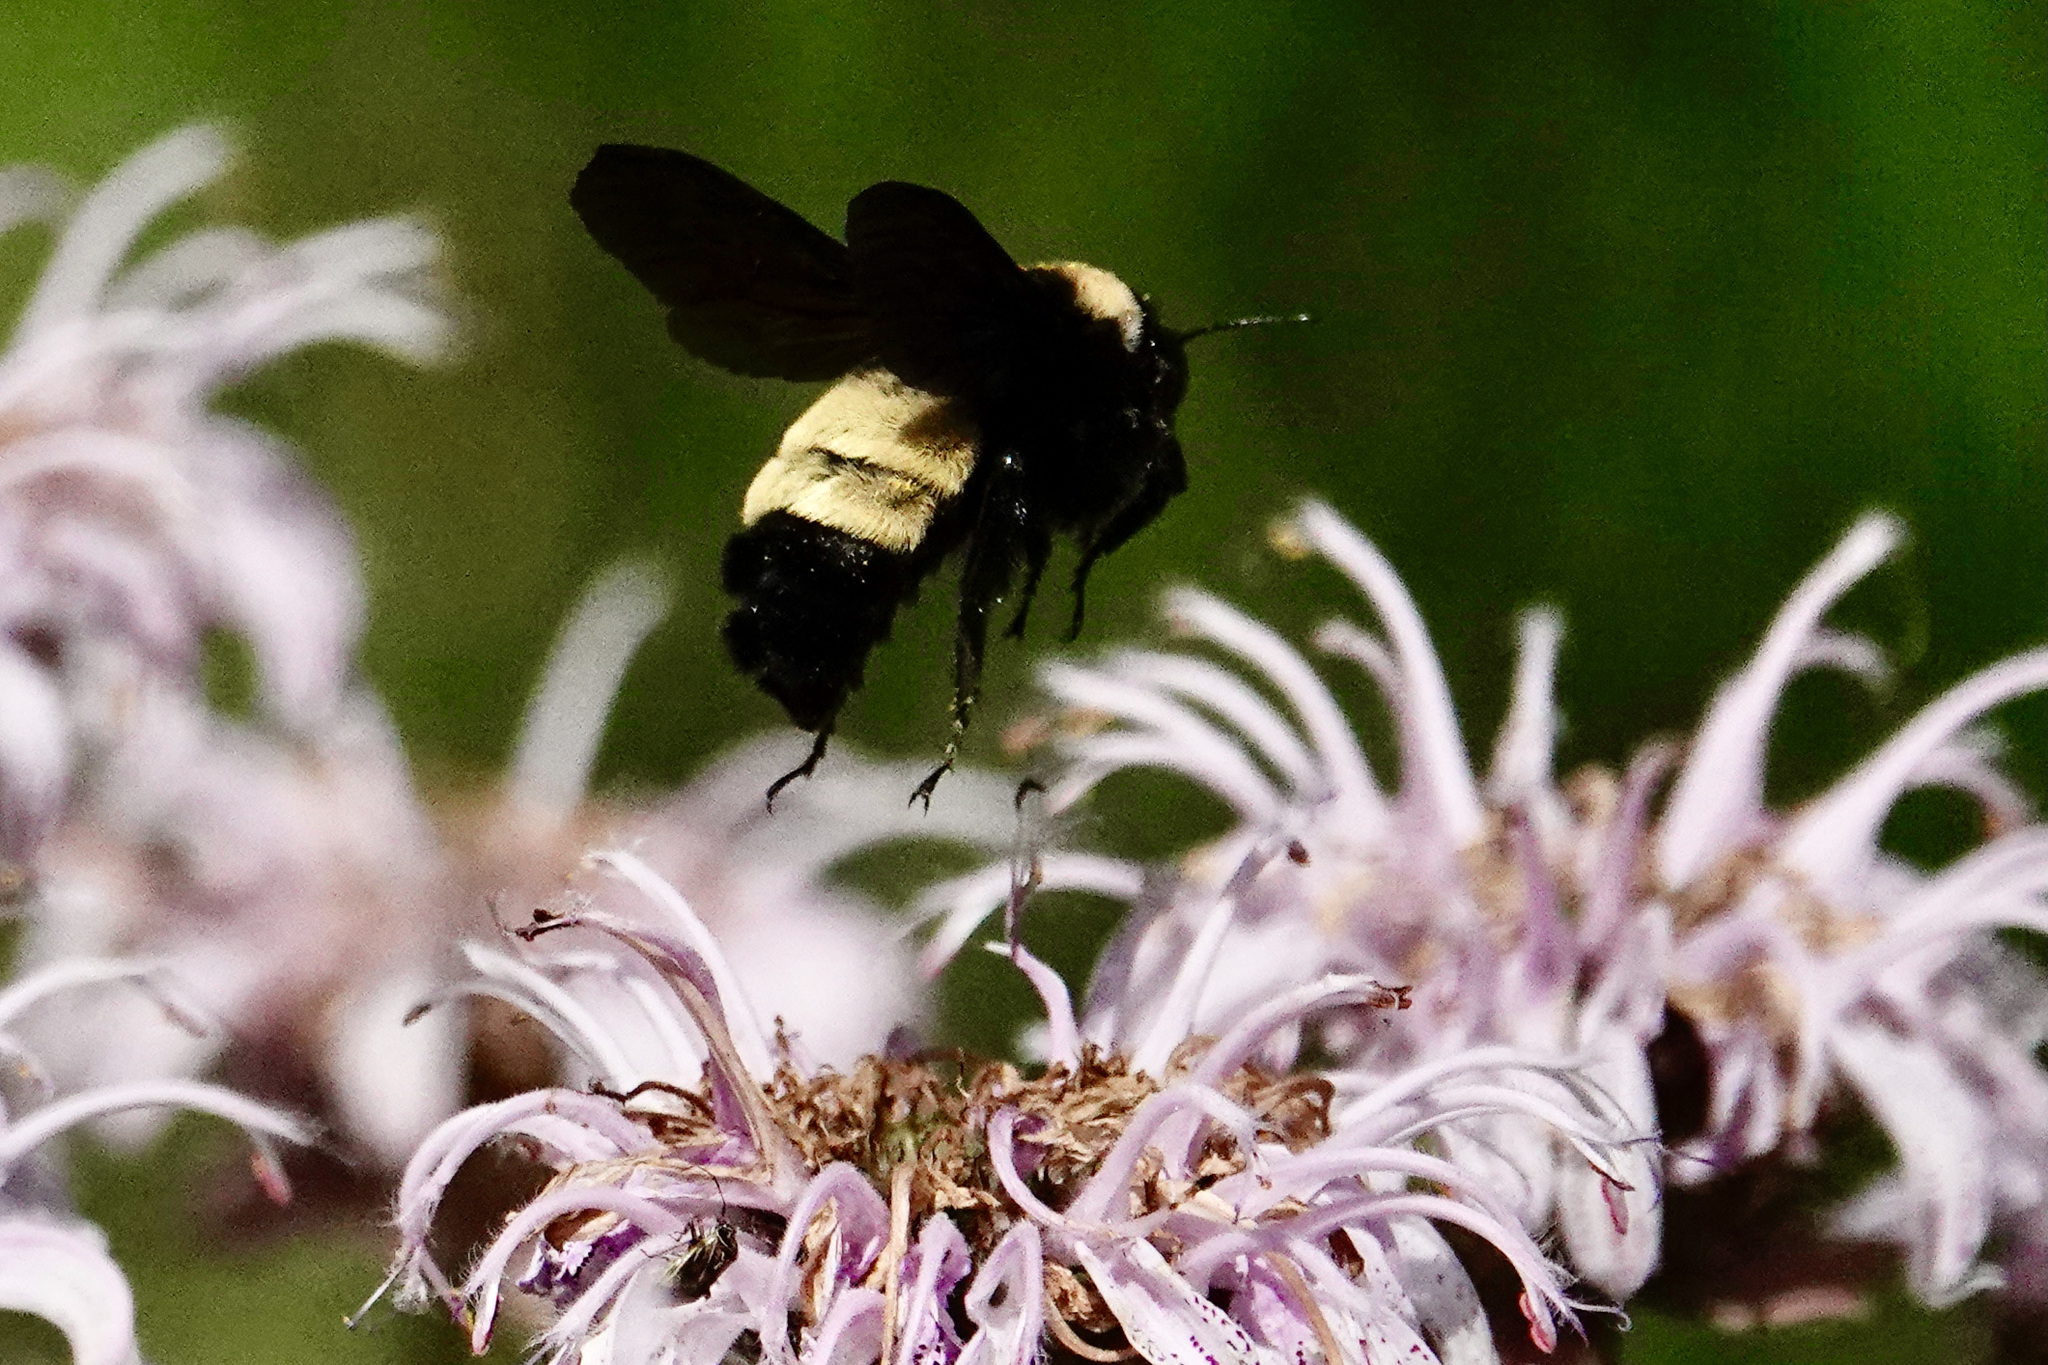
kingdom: Animalia
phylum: Arthropoda
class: Insecta
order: Hymenoptera
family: Apidae
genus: Bombus
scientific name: Bombus pensylvanicus
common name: Bumble bee
